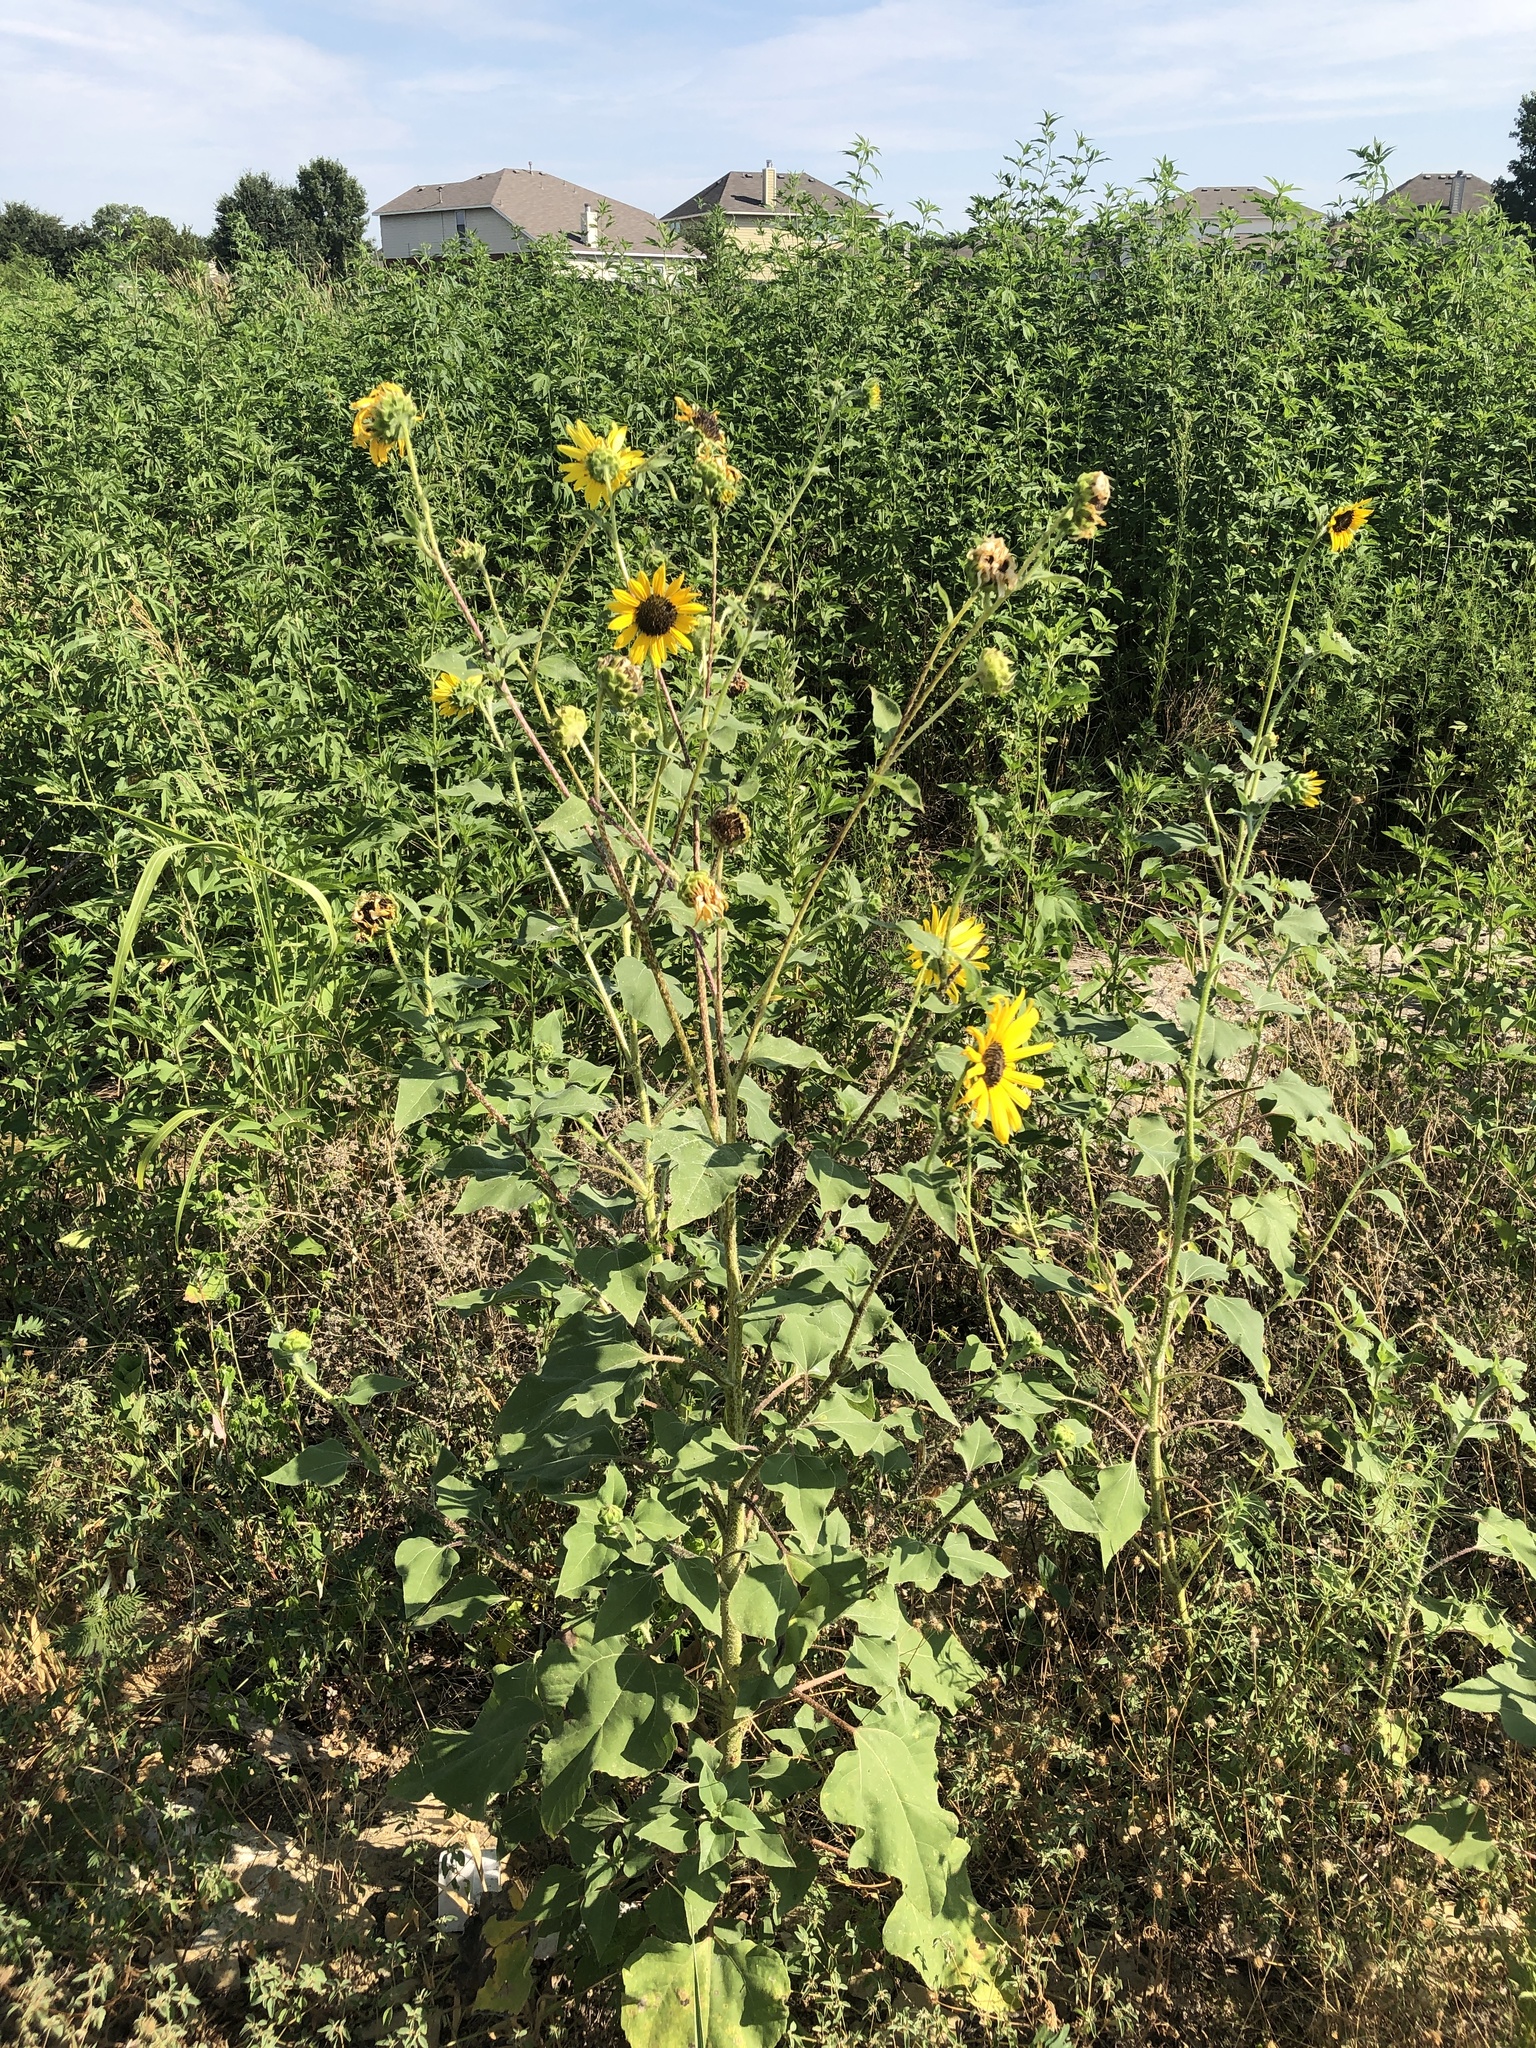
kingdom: Plantae
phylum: Tracheophyta
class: Magnoliopsida
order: Asterales
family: Asteraceae
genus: Helianthus
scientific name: Helianthus annuus
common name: Sunflower
